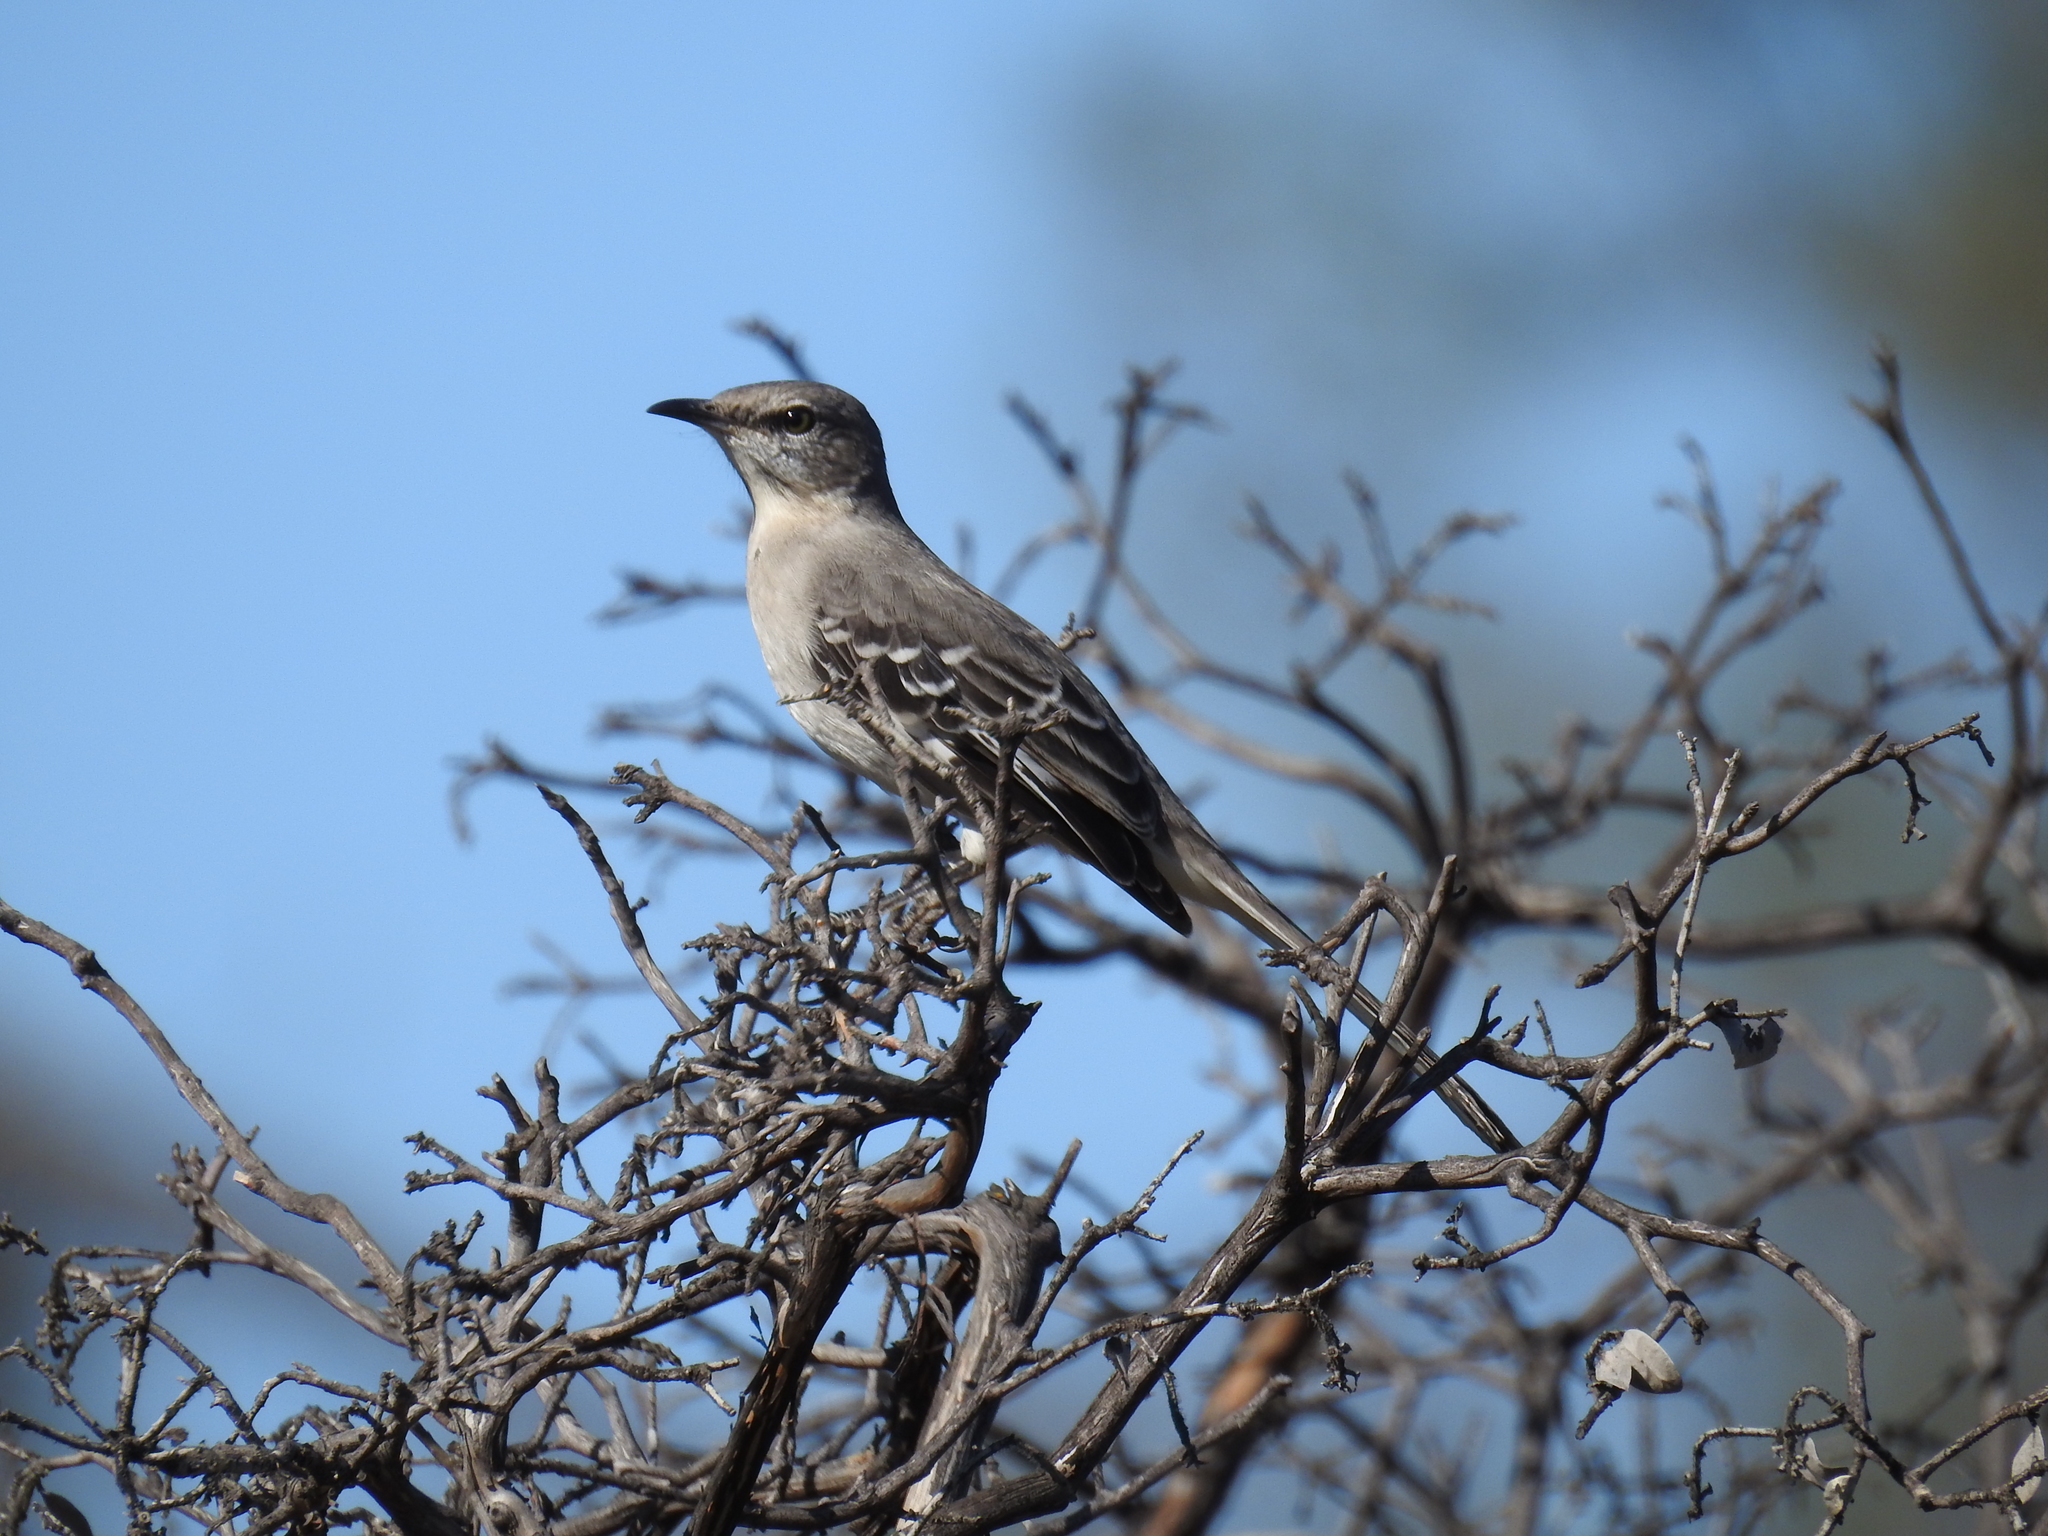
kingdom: Animalia
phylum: Chordata
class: Aves
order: Passeriformes
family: Mimidae
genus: Mimus
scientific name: Mimus polyglottos
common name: Northern mockingbird
